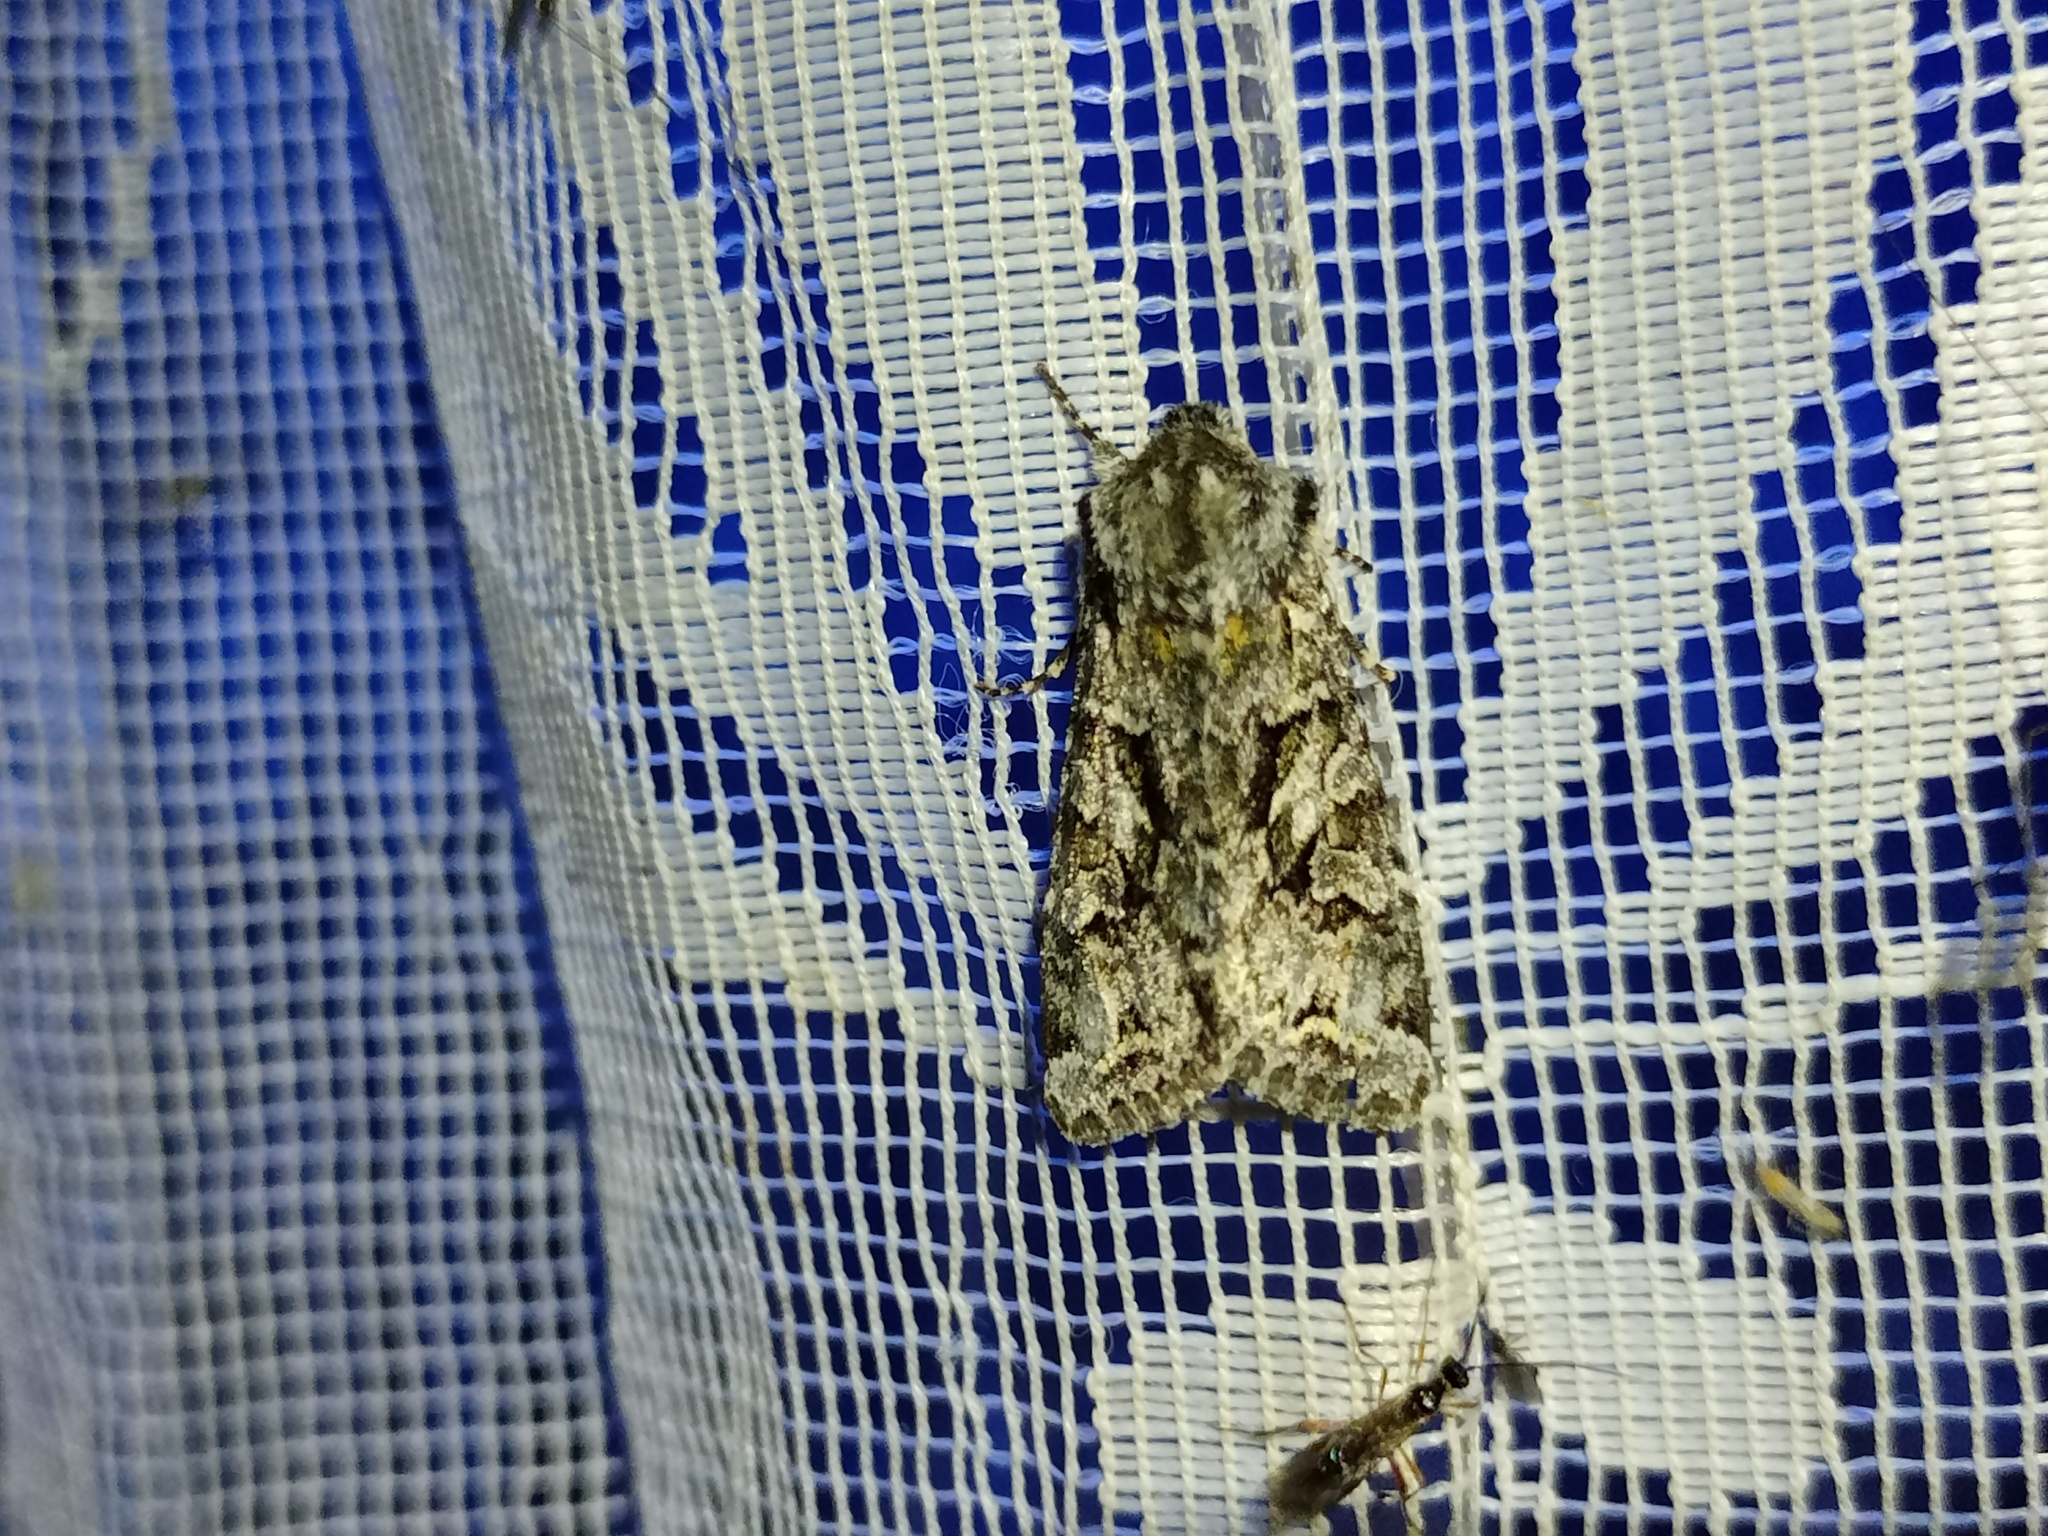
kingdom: Animalia
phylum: Arthropoda
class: Insecta
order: Lepidoptera
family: Noctuidae
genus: Hada
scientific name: Hada plebeja
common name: Shears
